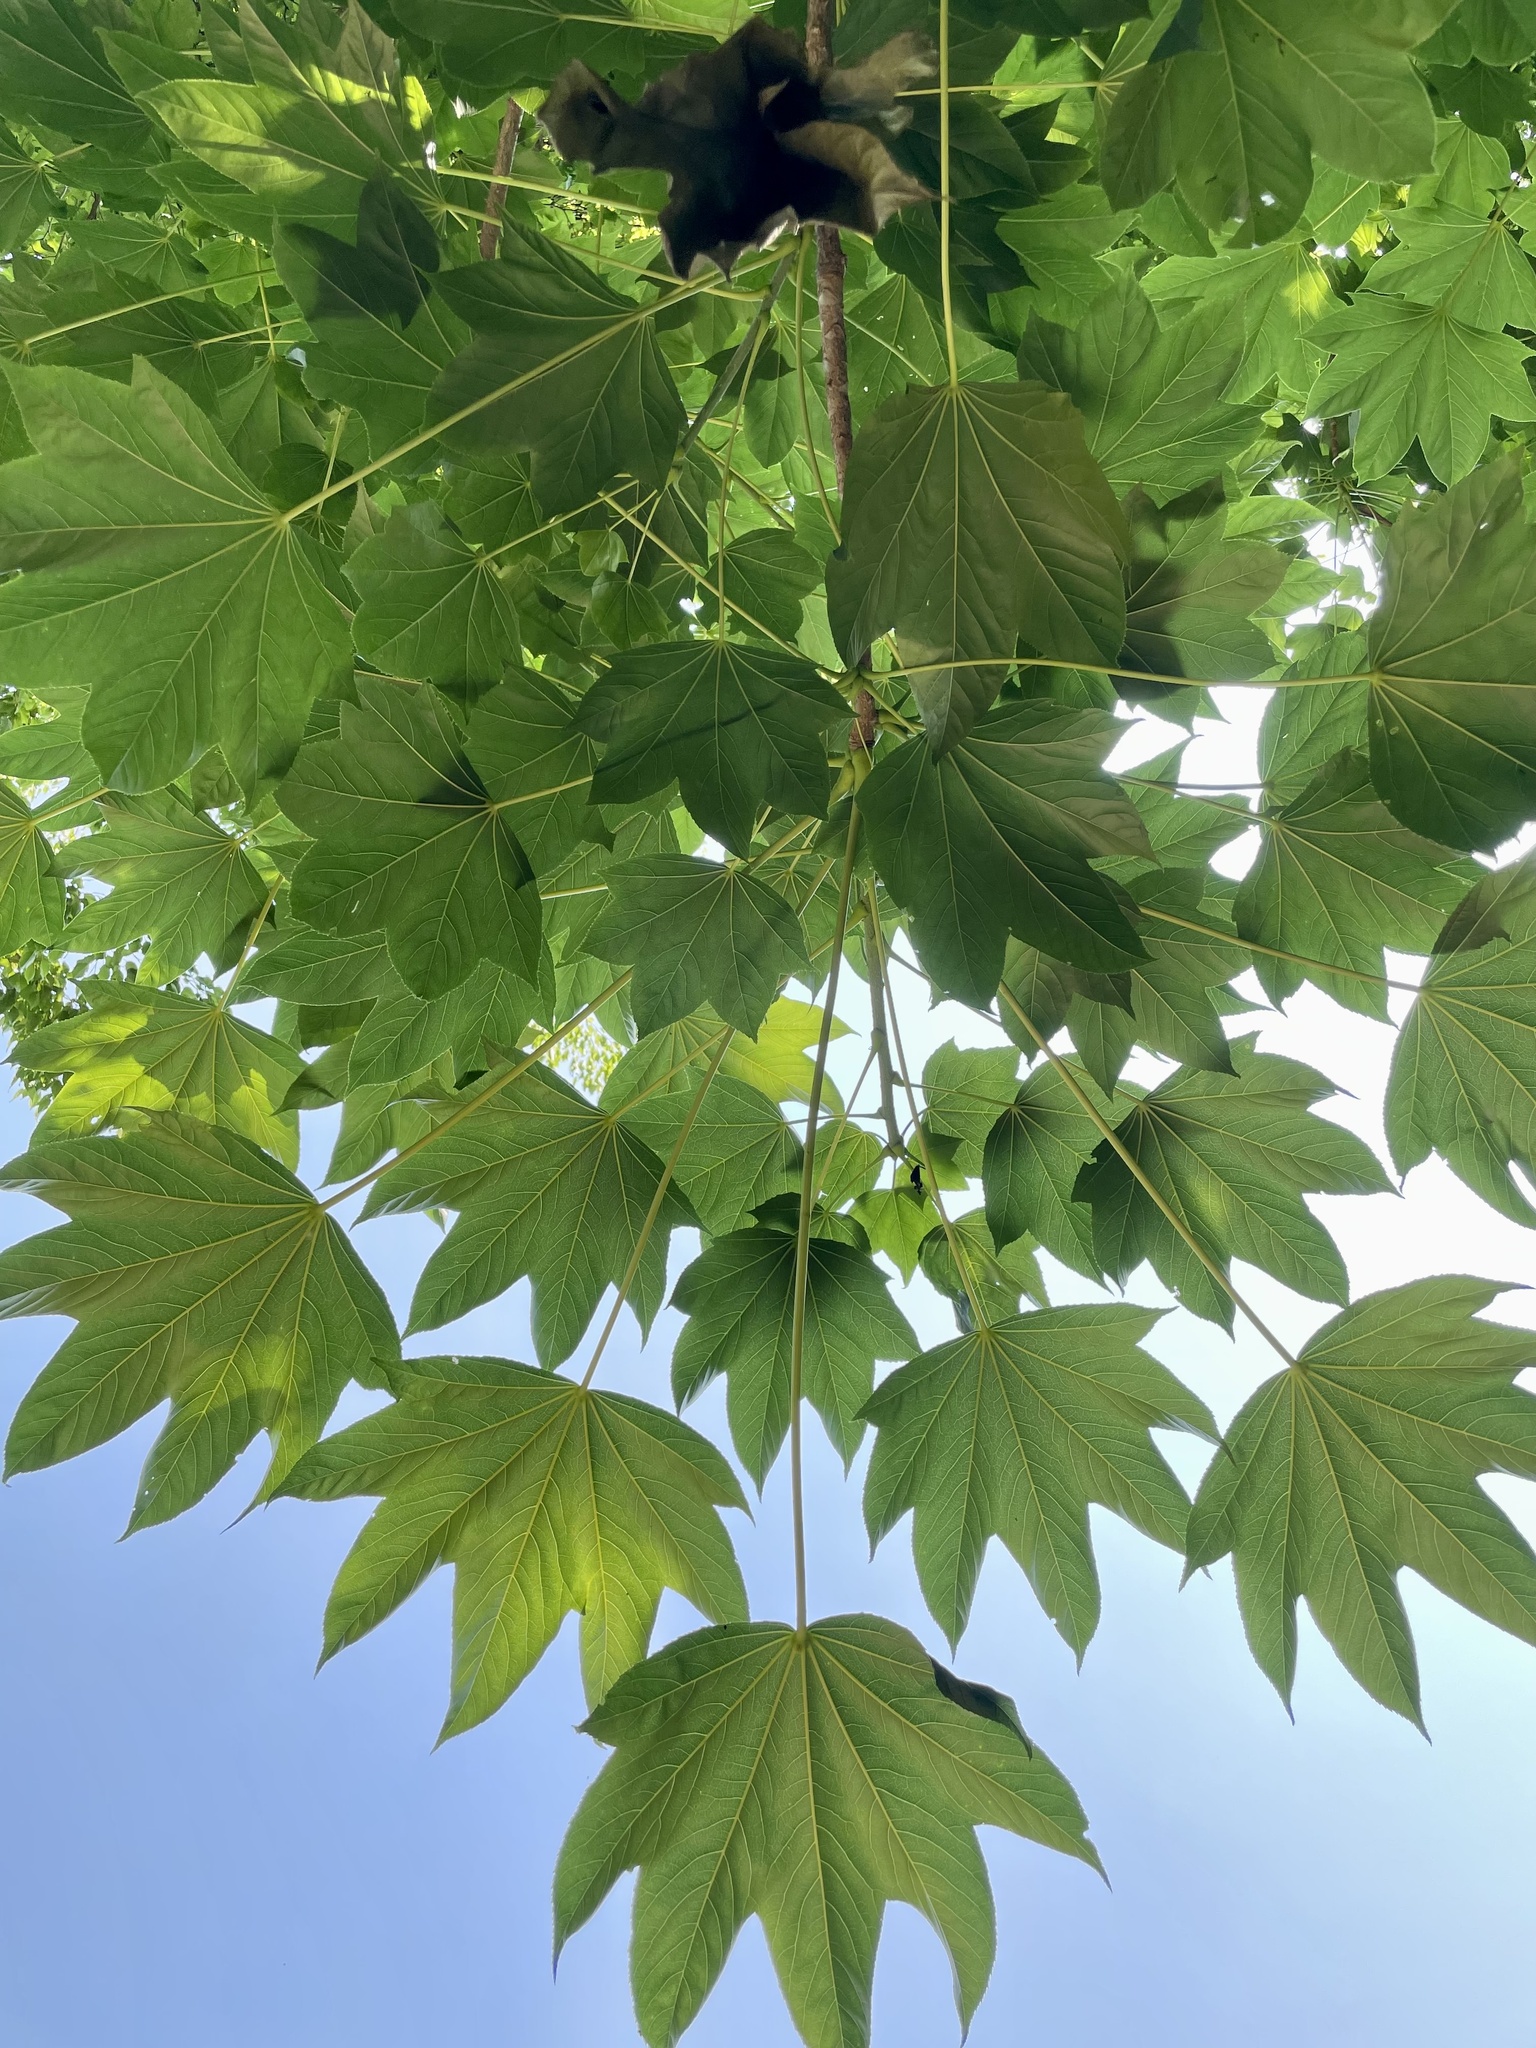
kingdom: Plantae
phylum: Tracheophyta
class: Magnoliopsida
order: Apiales
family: Araliaceae
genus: Kalopanax
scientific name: Kalopanax septemlobus
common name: Castor aralia
